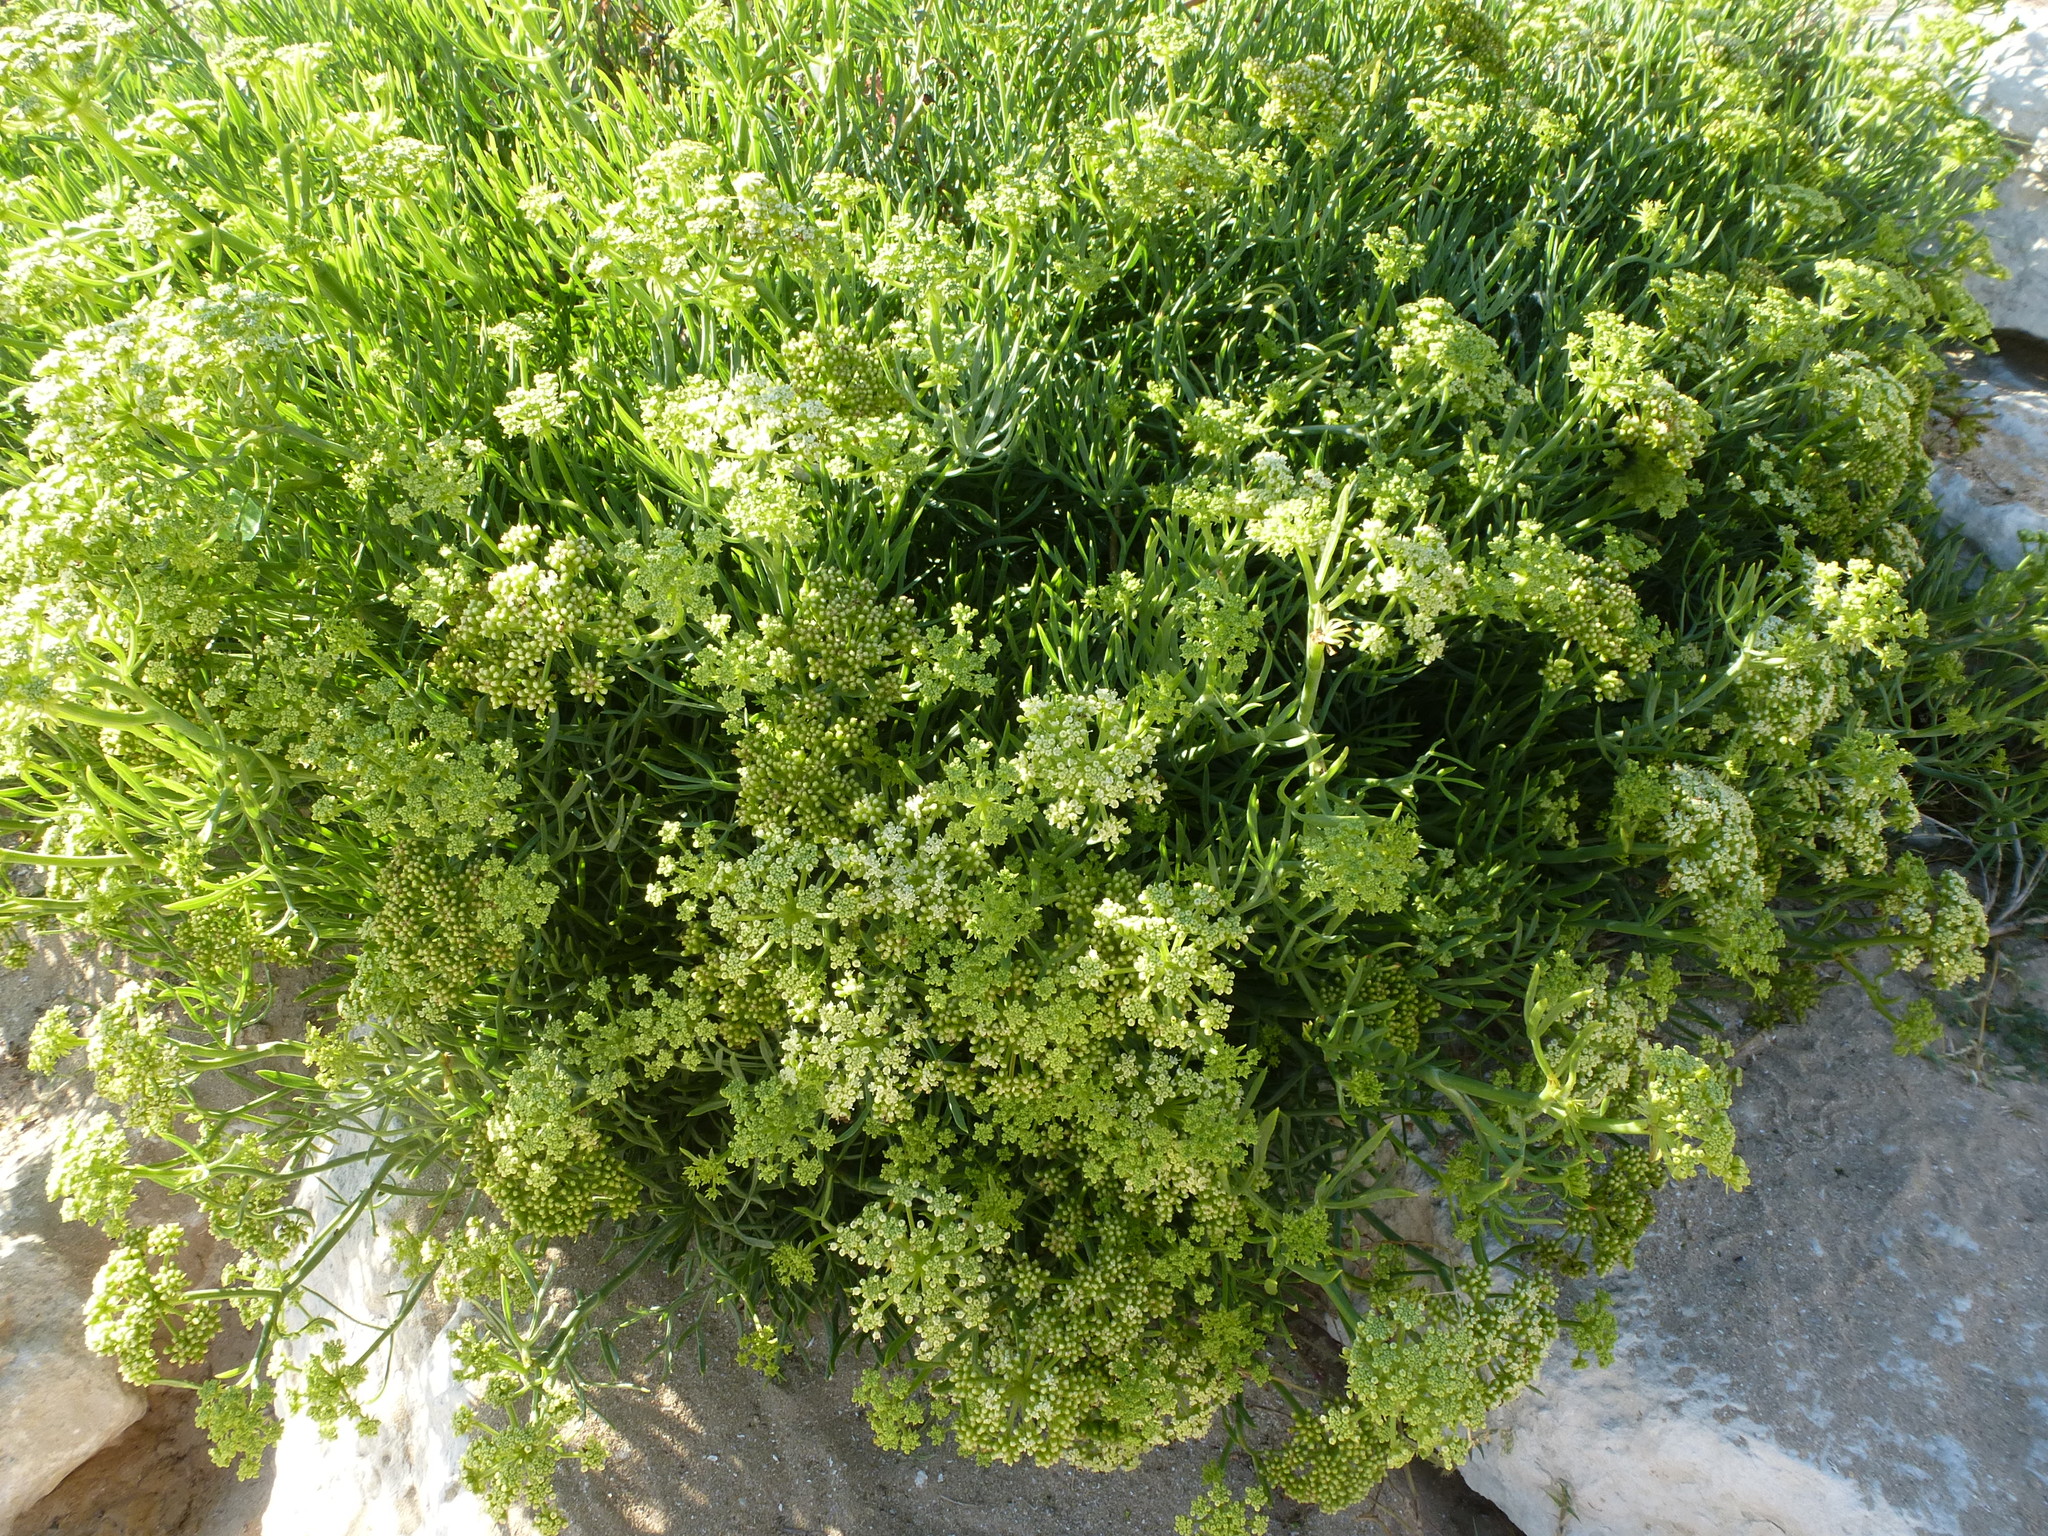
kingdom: Plantae
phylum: Tracheophyta
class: Magnoliopsida
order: Apiales
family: Apiaceae
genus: Crithmum
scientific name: Crithmum maritimum
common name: Rock samphire
